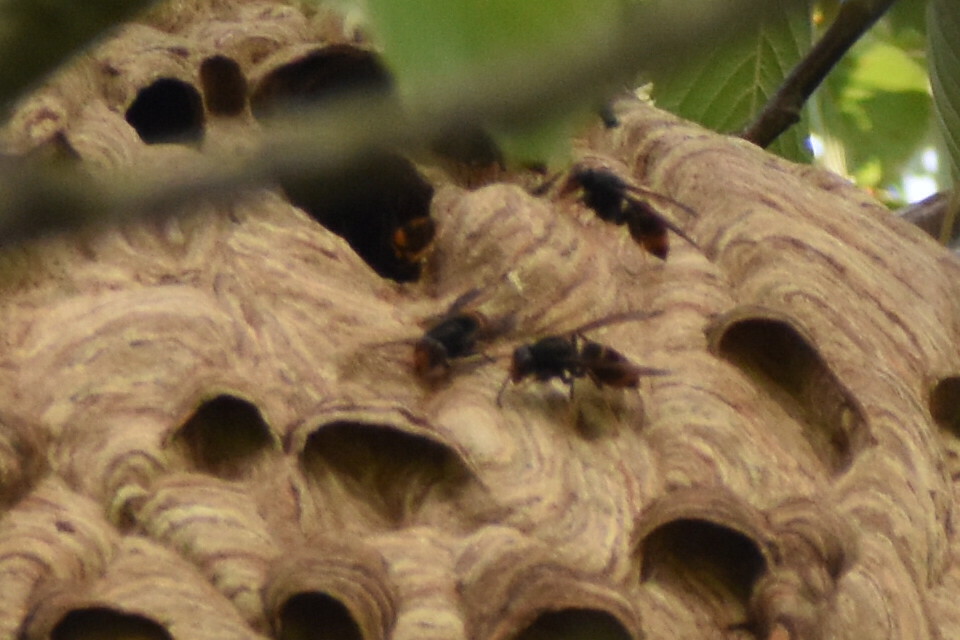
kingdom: Animalia
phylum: Arthropoda
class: Insecta
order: Hymenoptera
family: Vespidae
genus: Vespa
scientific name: Vespa velutina
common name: Asian hornet
